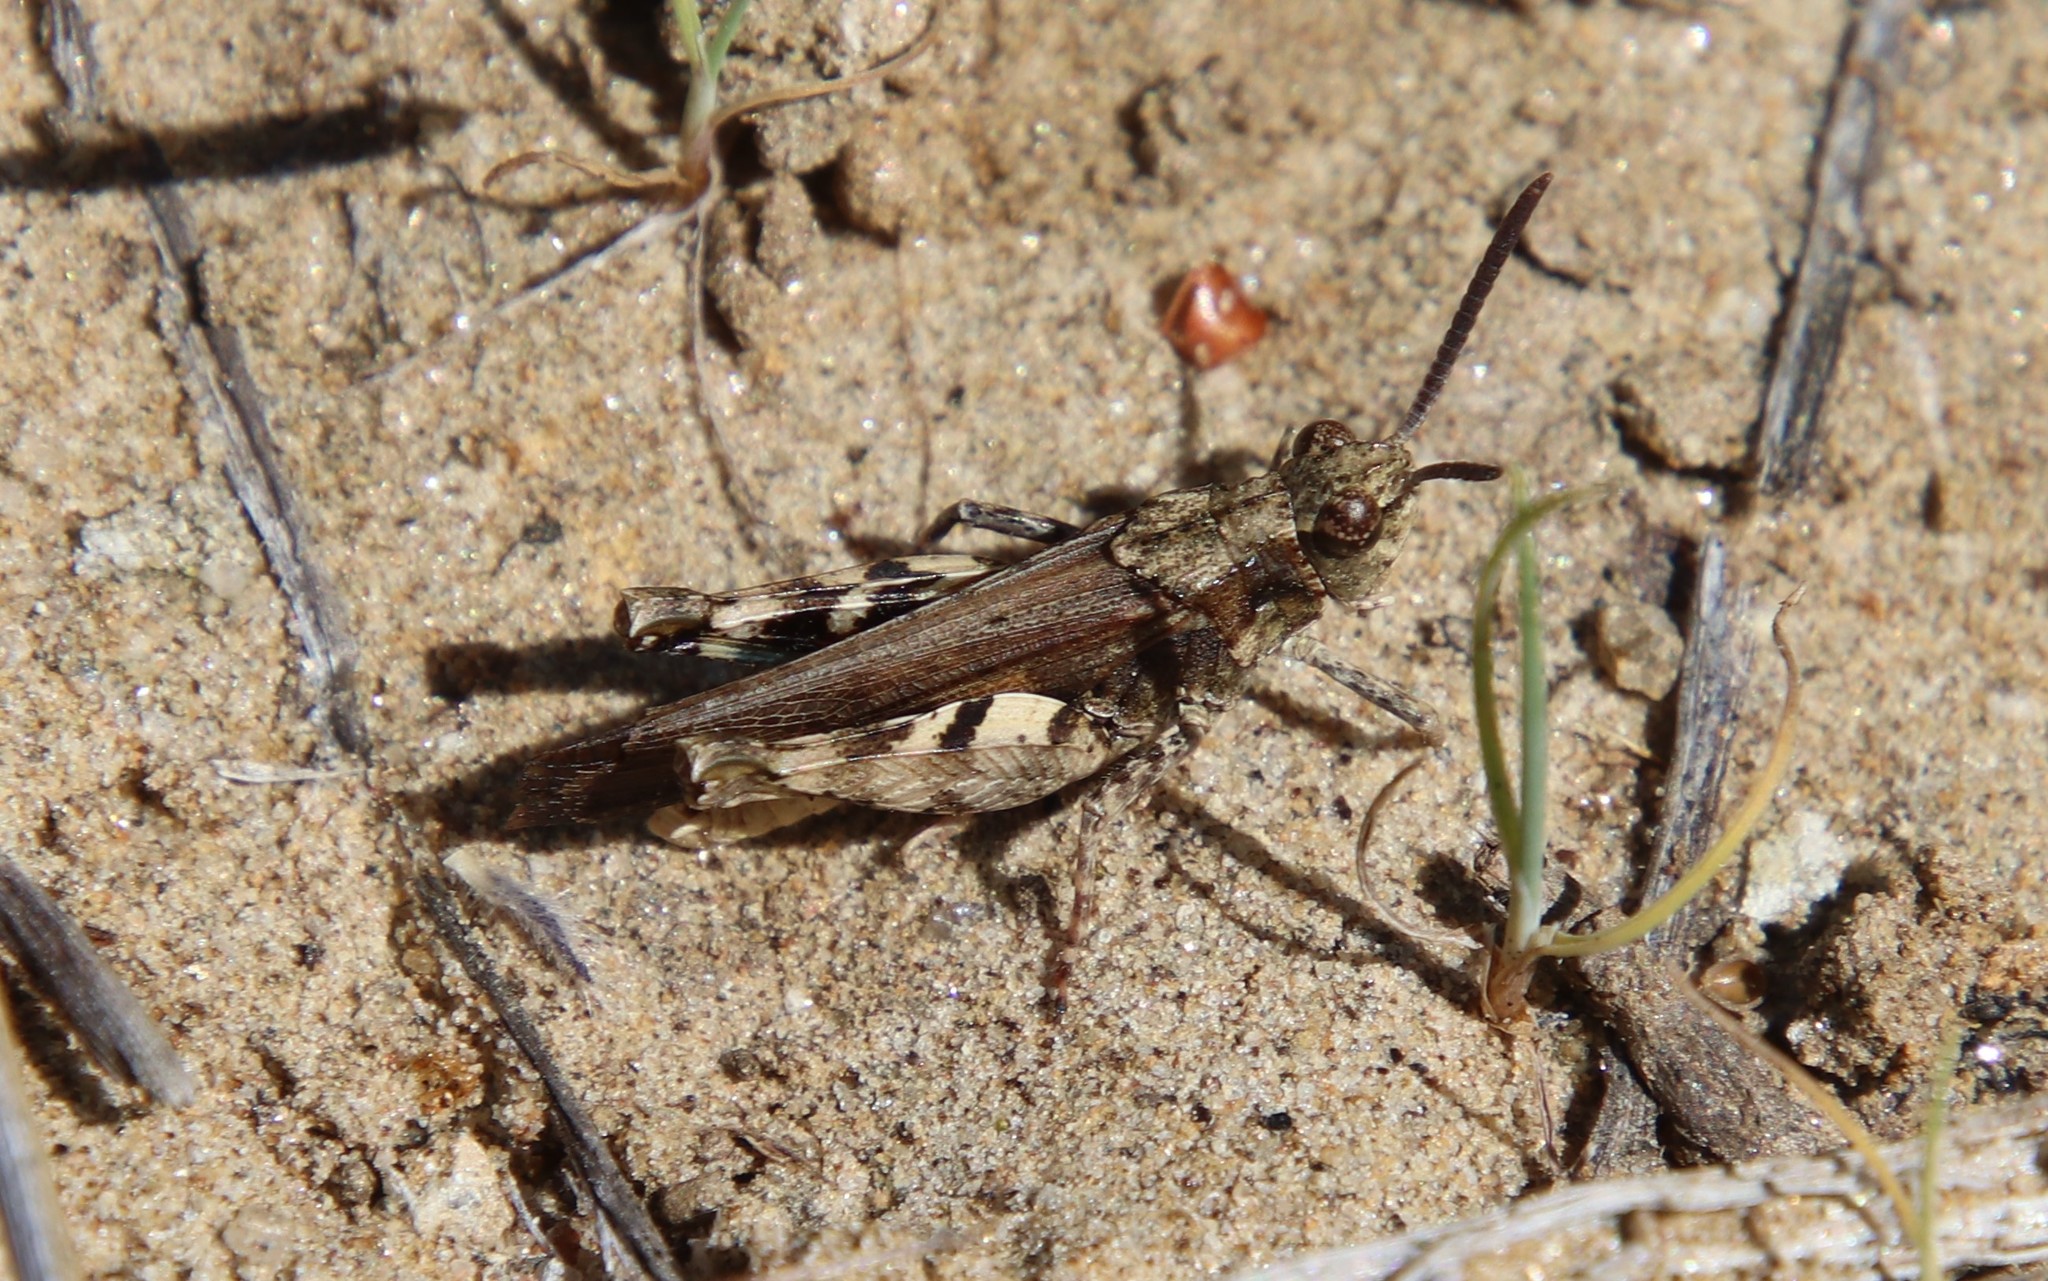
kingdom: Animalia
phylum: Arthropoda
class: Insecta
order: Orthoptera
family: Acrididae
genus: Chimarocephala
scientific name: Chimarocephala pacifica
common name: Painted meadow grasshopper
